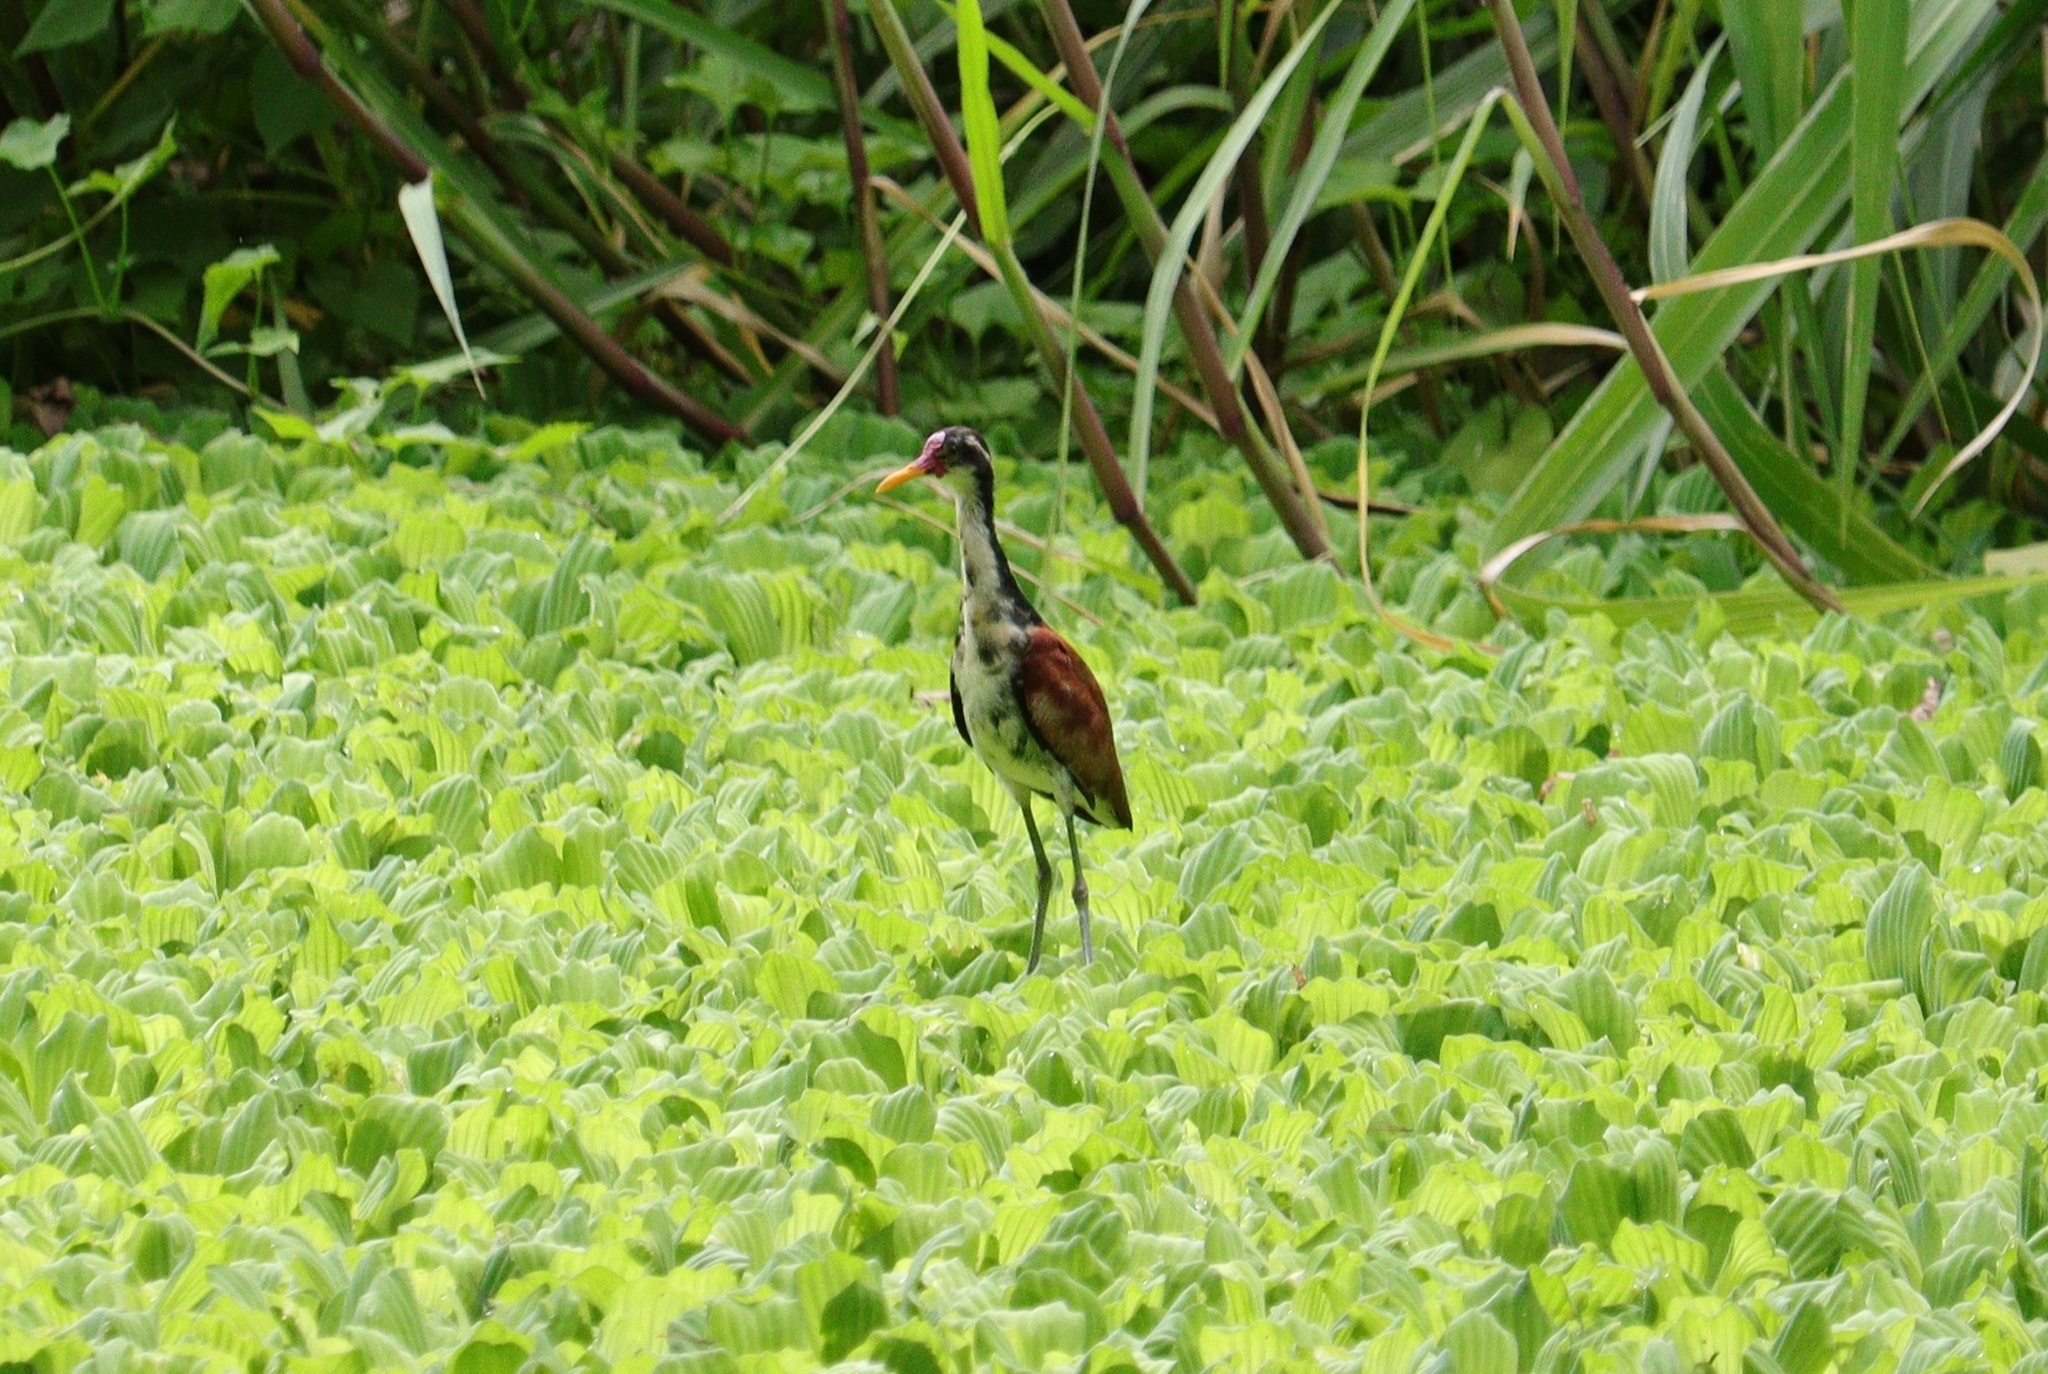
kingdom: Animalia
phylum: Chordata
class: Aves
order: Charadriiformes
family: Jacanidae
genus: Jacana
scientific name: Jacana jacana
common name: Wattled jacana
